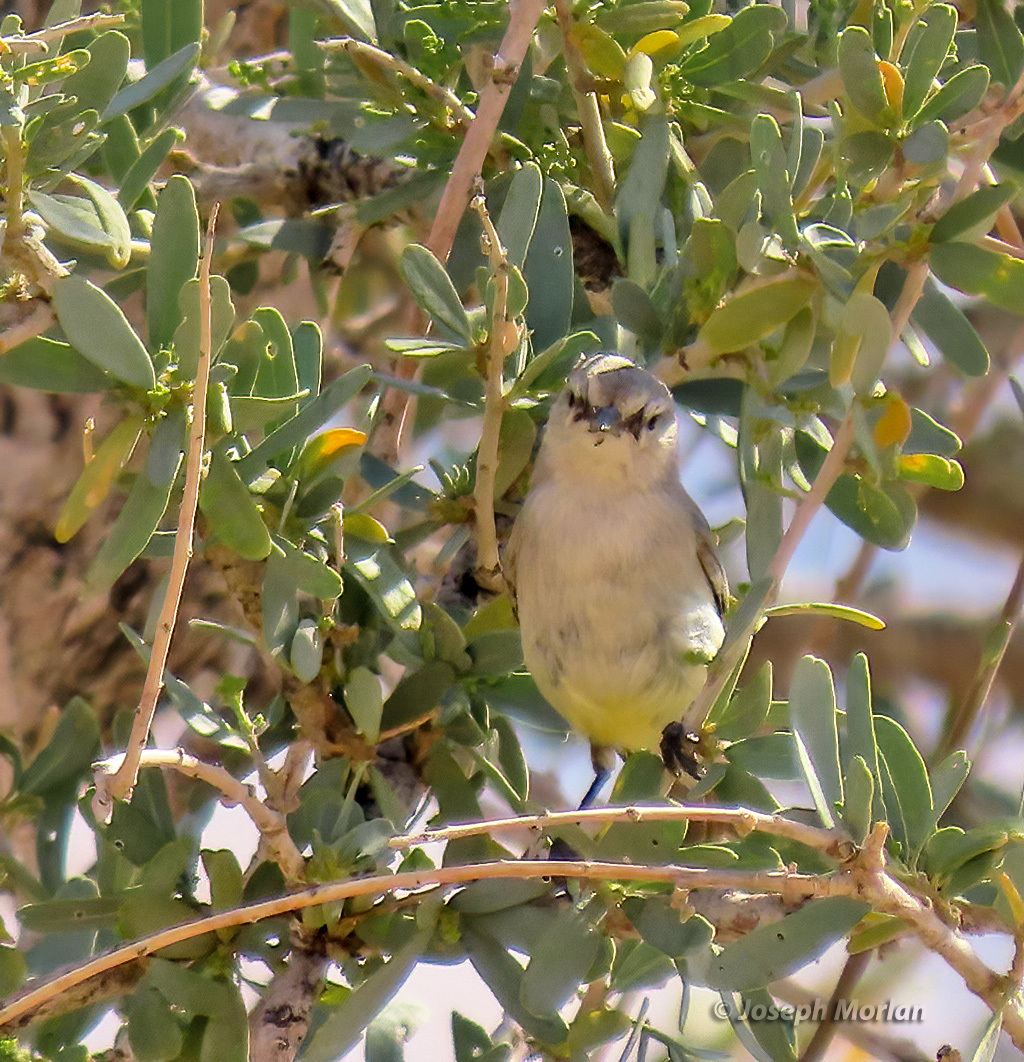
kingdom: Animalia
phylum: Chordata
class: Aves
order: Passeriformes
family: Cisticolidae
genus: Eremomela
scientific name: Eremomela icteropygialis
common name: Yellow-bellied eremomela
